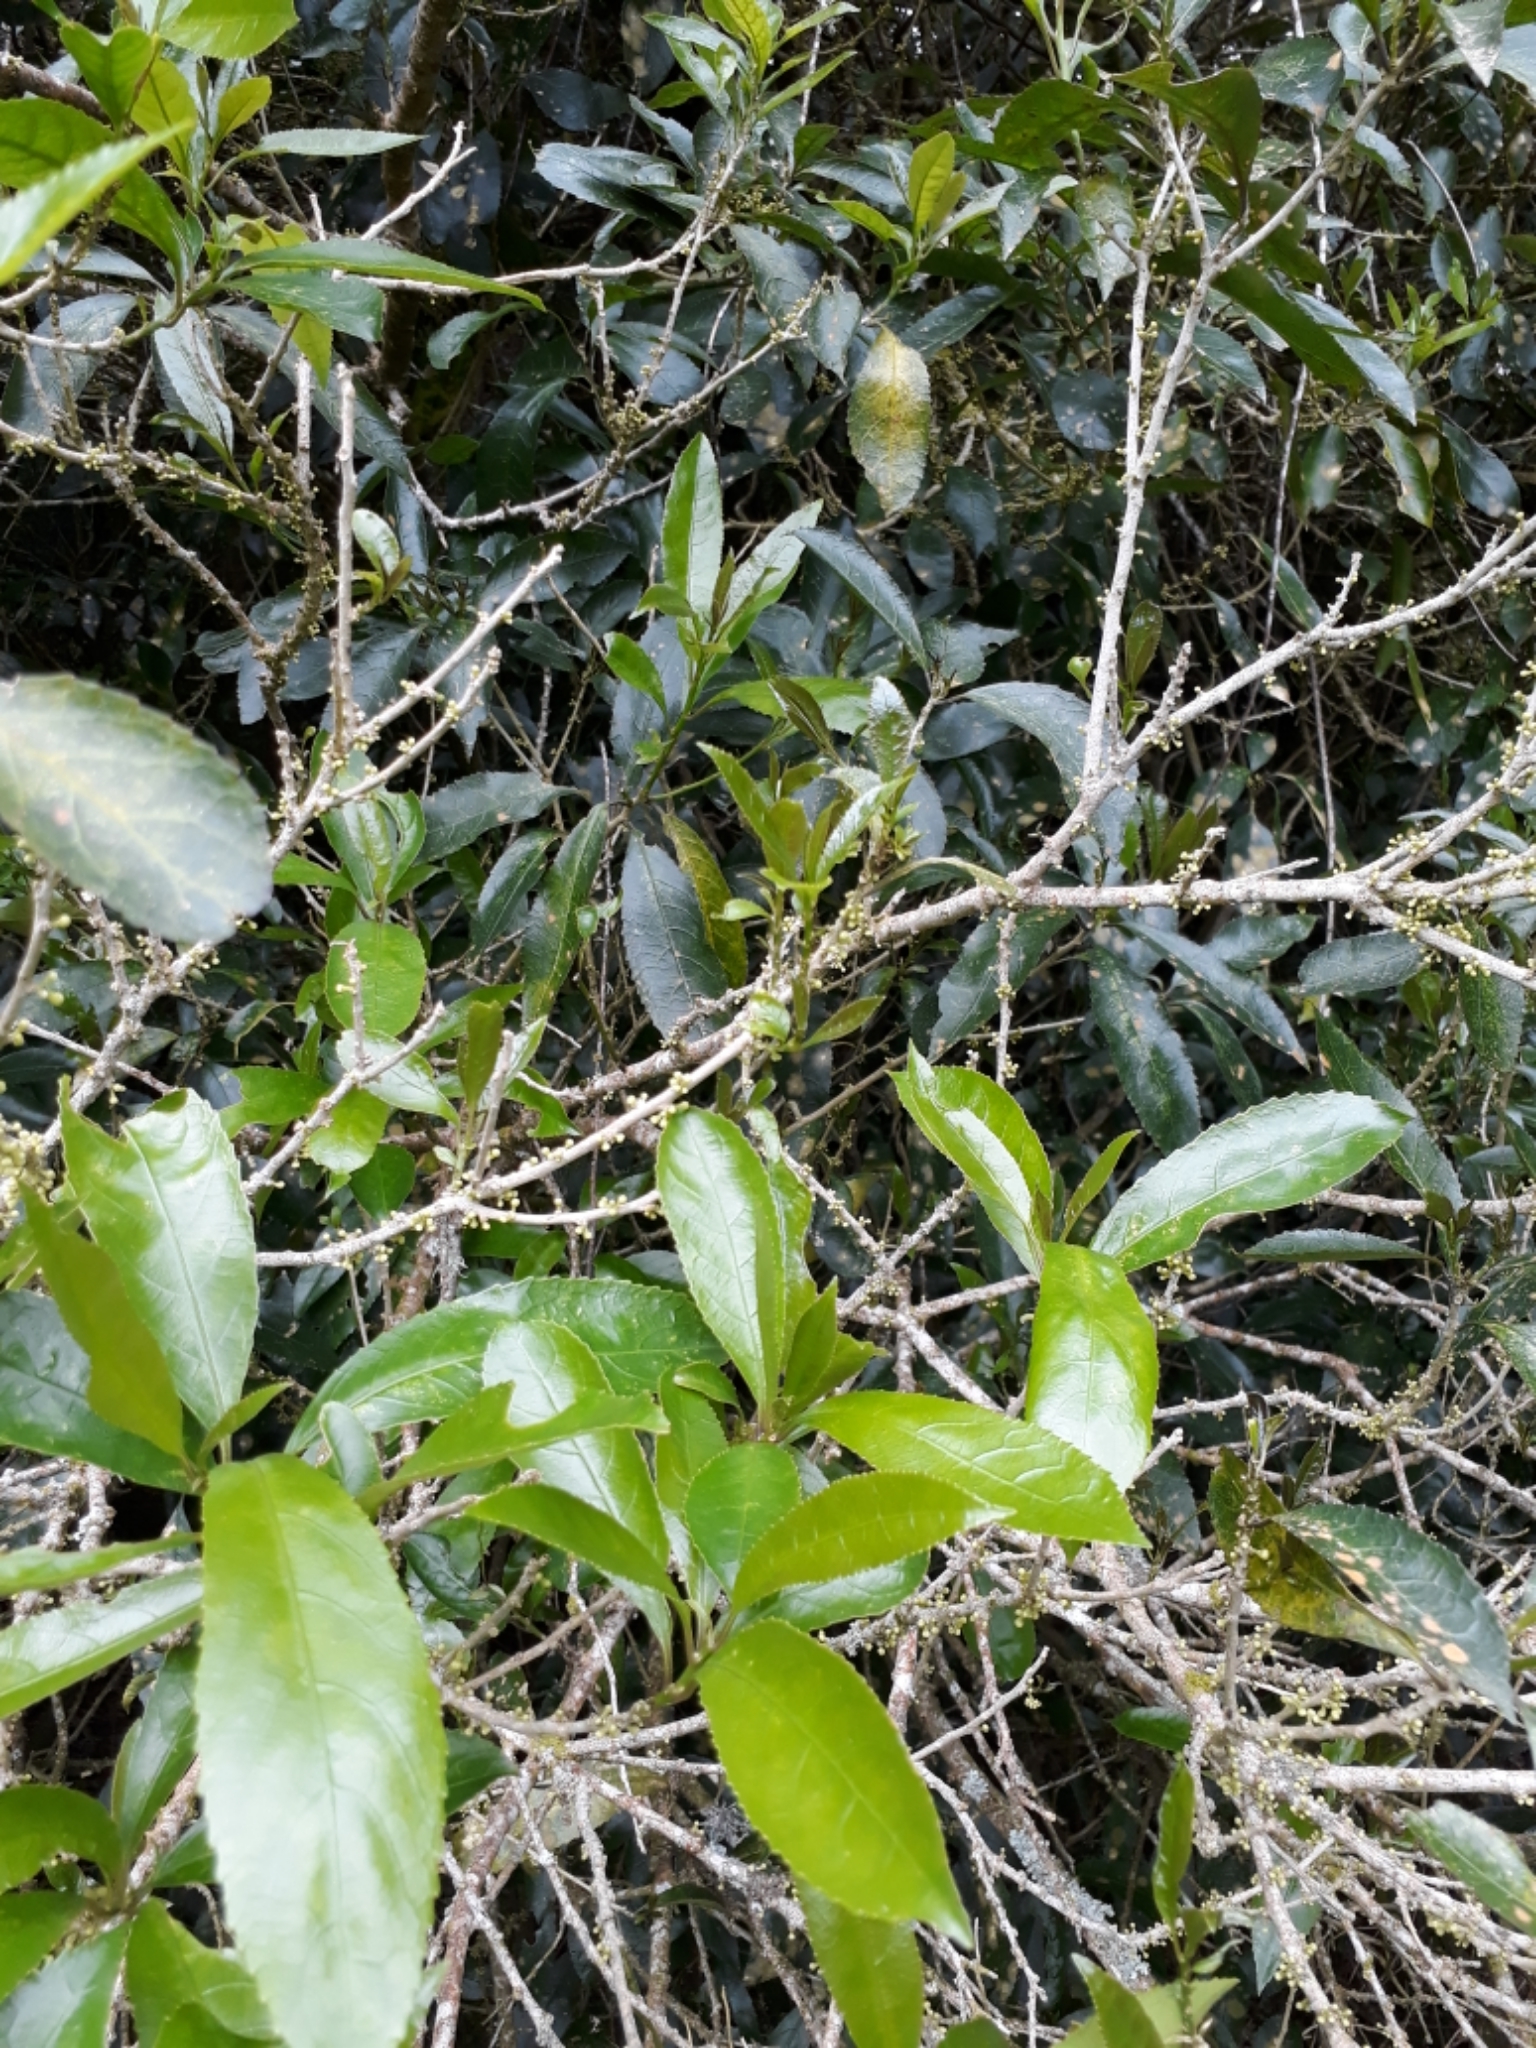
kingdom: Plantae
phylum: Tracheophyta
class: Magnoliopsida
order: Malpighiales
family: Violaceae
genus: Melicytus
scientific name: Melicytus ramiflorus
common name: Mahoe
